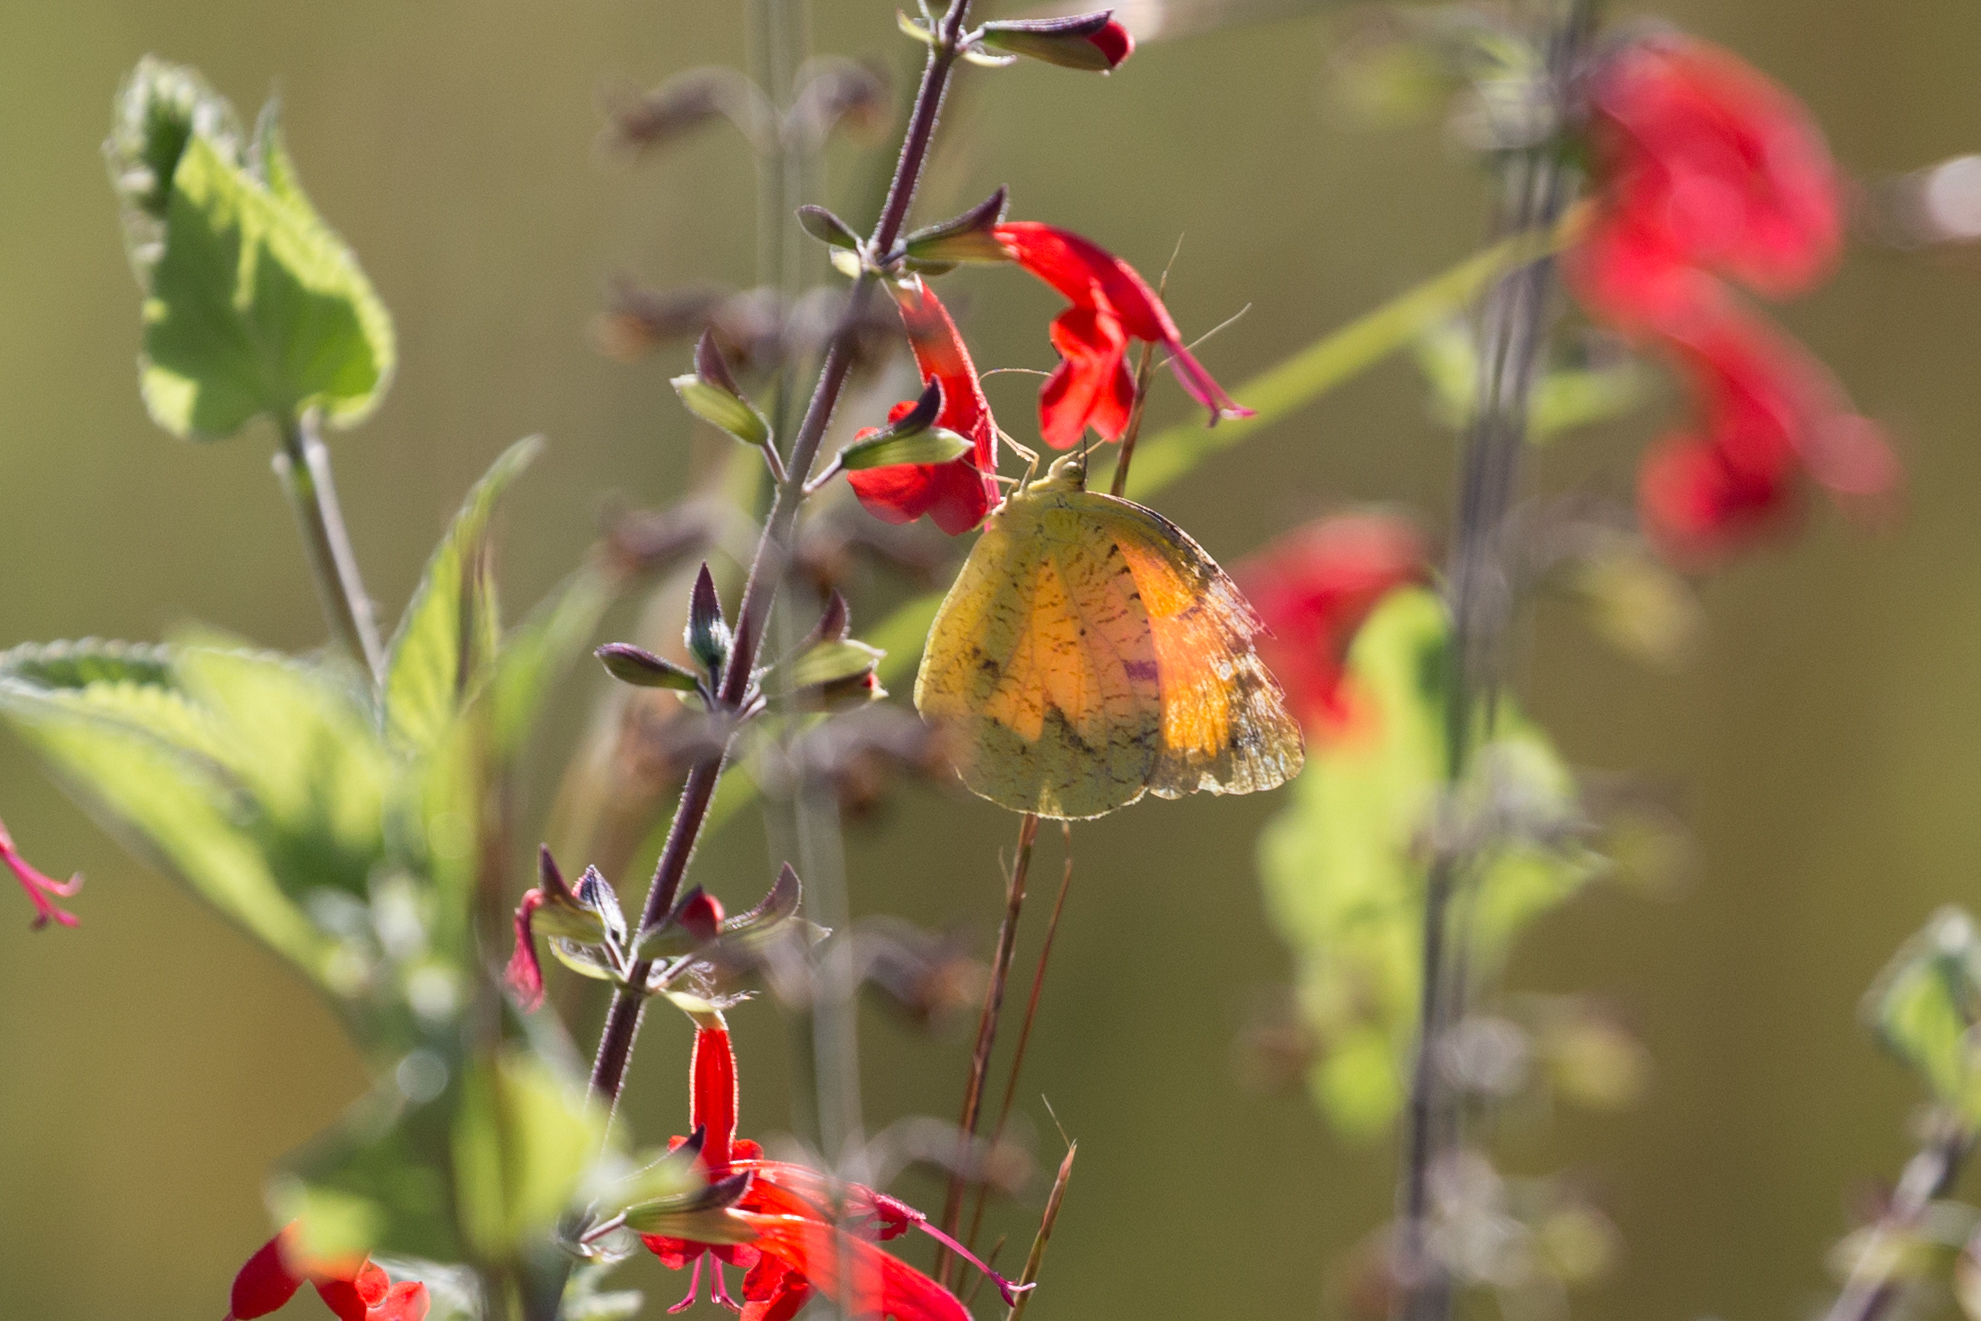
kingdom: Animalia
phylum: Arthropoda
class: Insecta
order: Lepidoptera
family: Pieridae
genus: Abaeis
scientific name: Abaeis nicippe
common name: Sleepy orange
